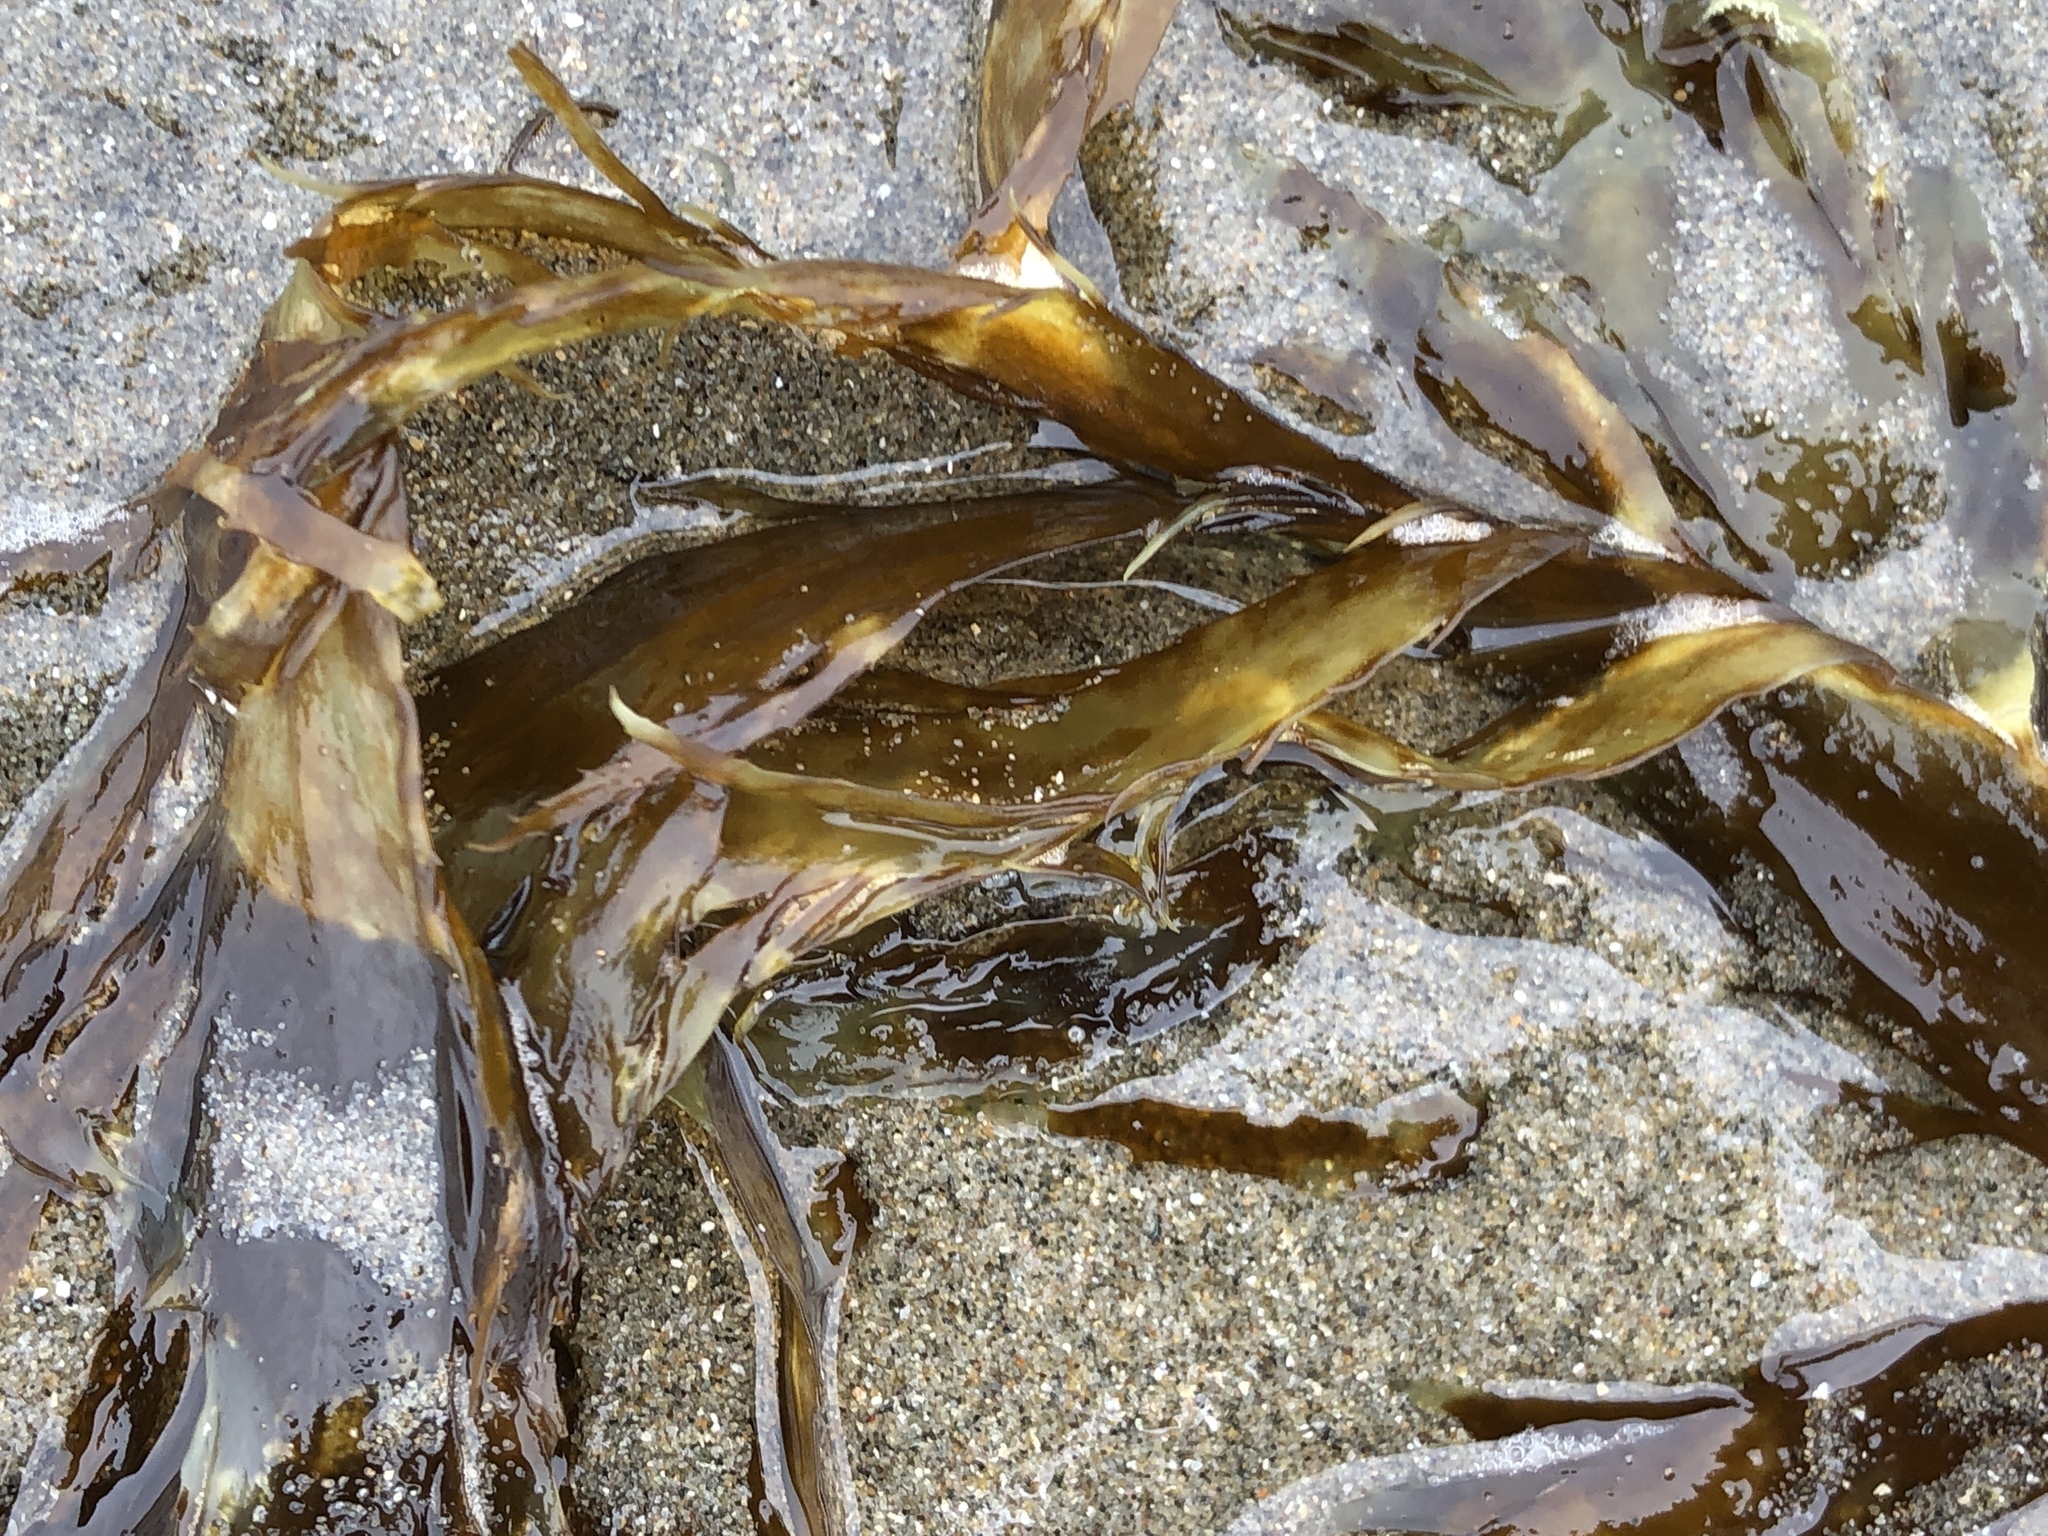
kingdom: Chromista
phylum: Ochrophyta
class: Phaeophyceae
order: Desmarestiales
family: Desmarestiaceae
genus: Desmarestia
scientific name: Desmarestia ligulata
